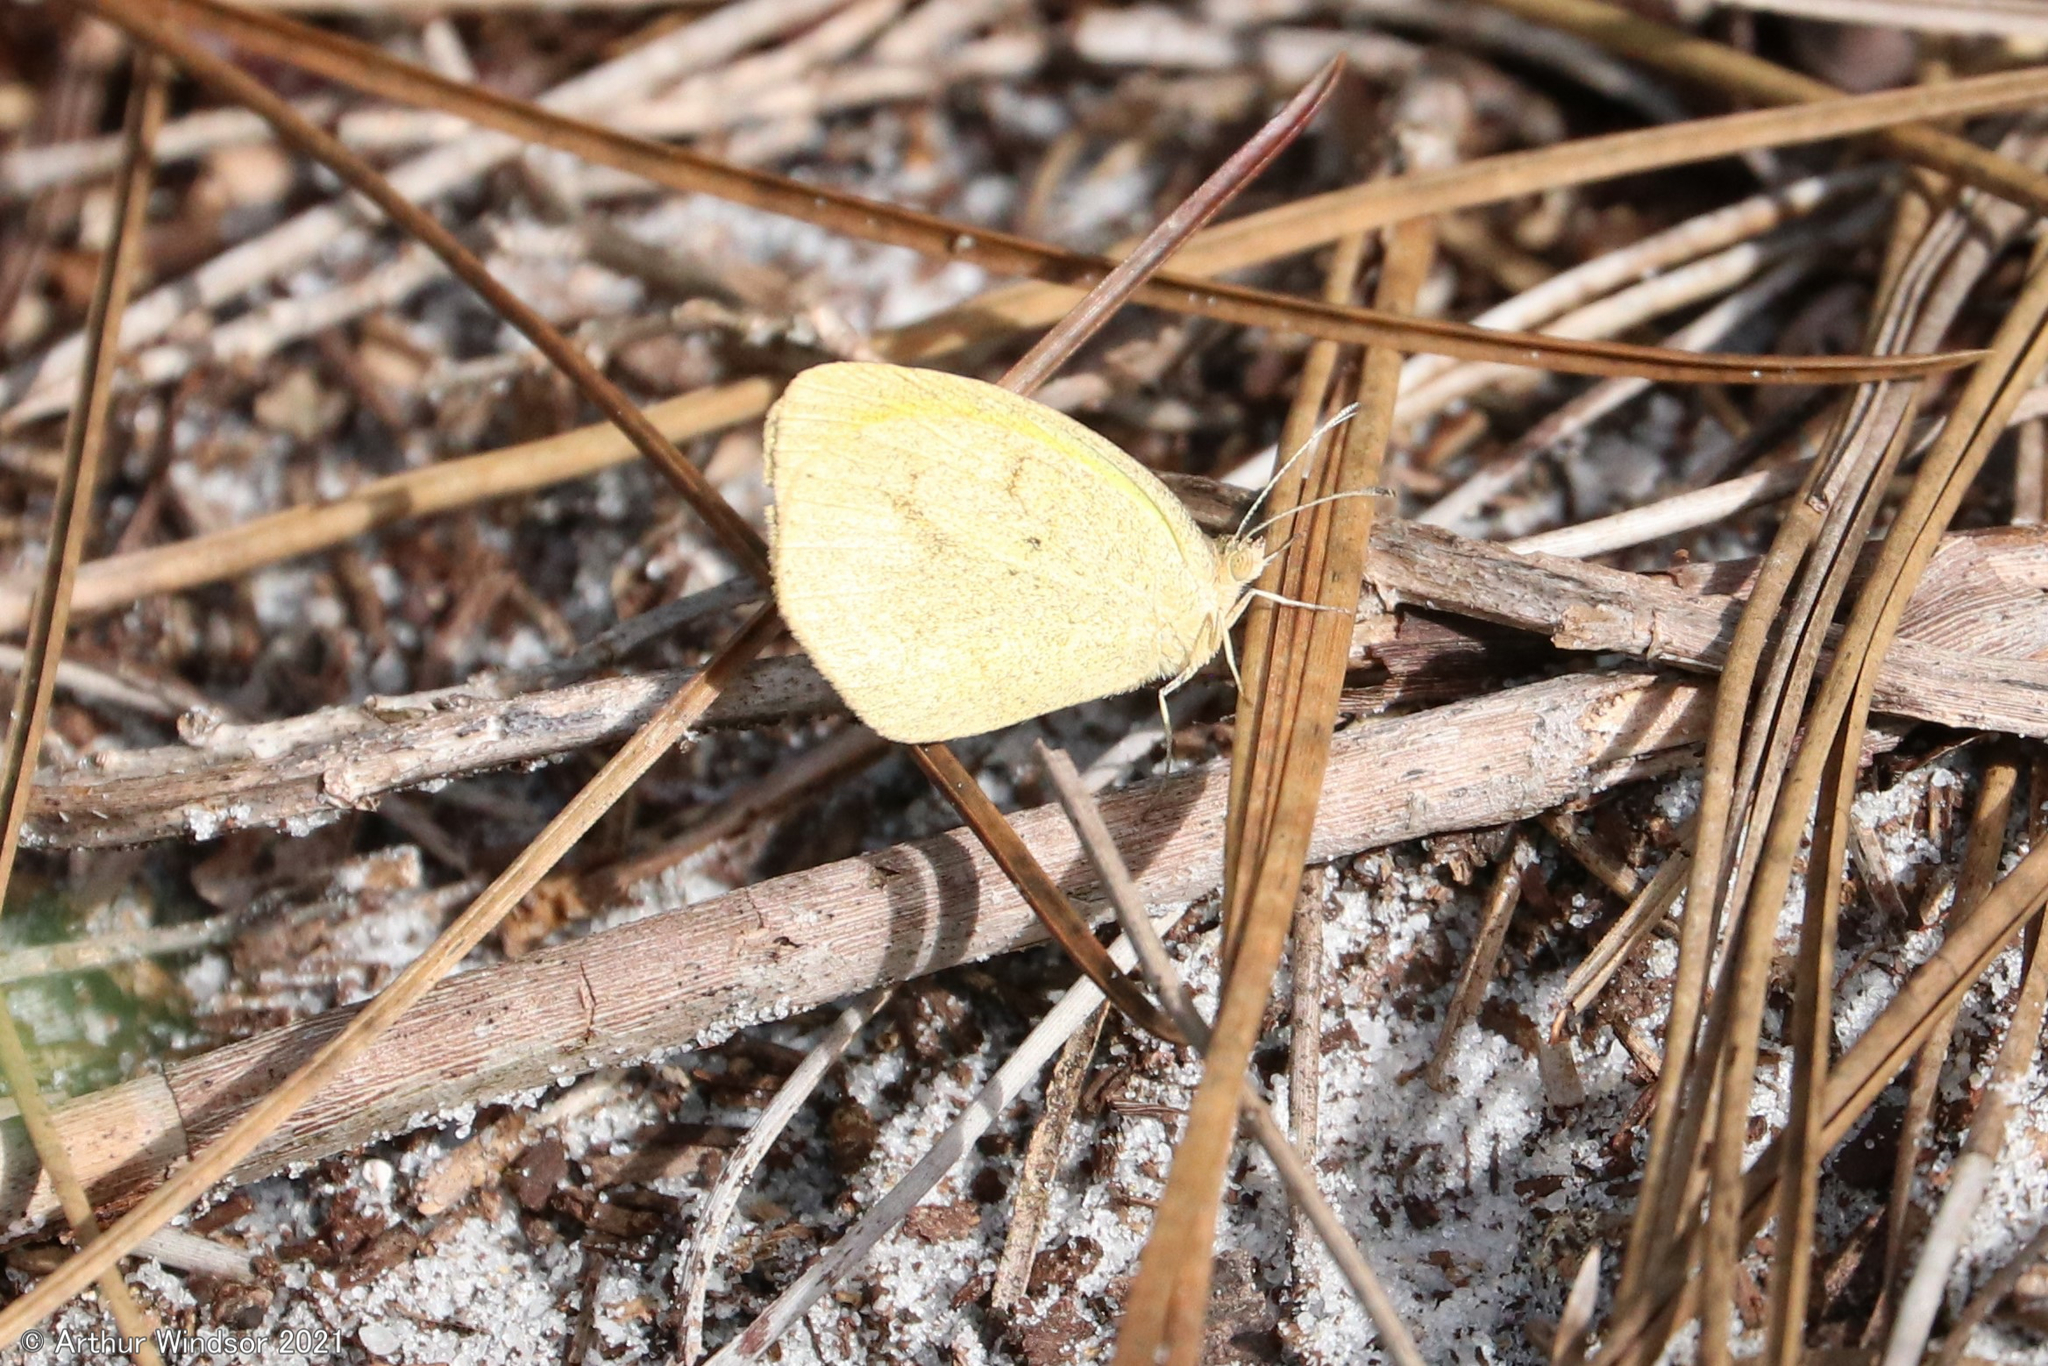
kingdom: Animalia
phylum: Arthropoda
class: Insecta
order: Lepidoptera
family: Pieridae
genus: Eurema
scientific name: Eurema daira
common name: Barred sulphur
